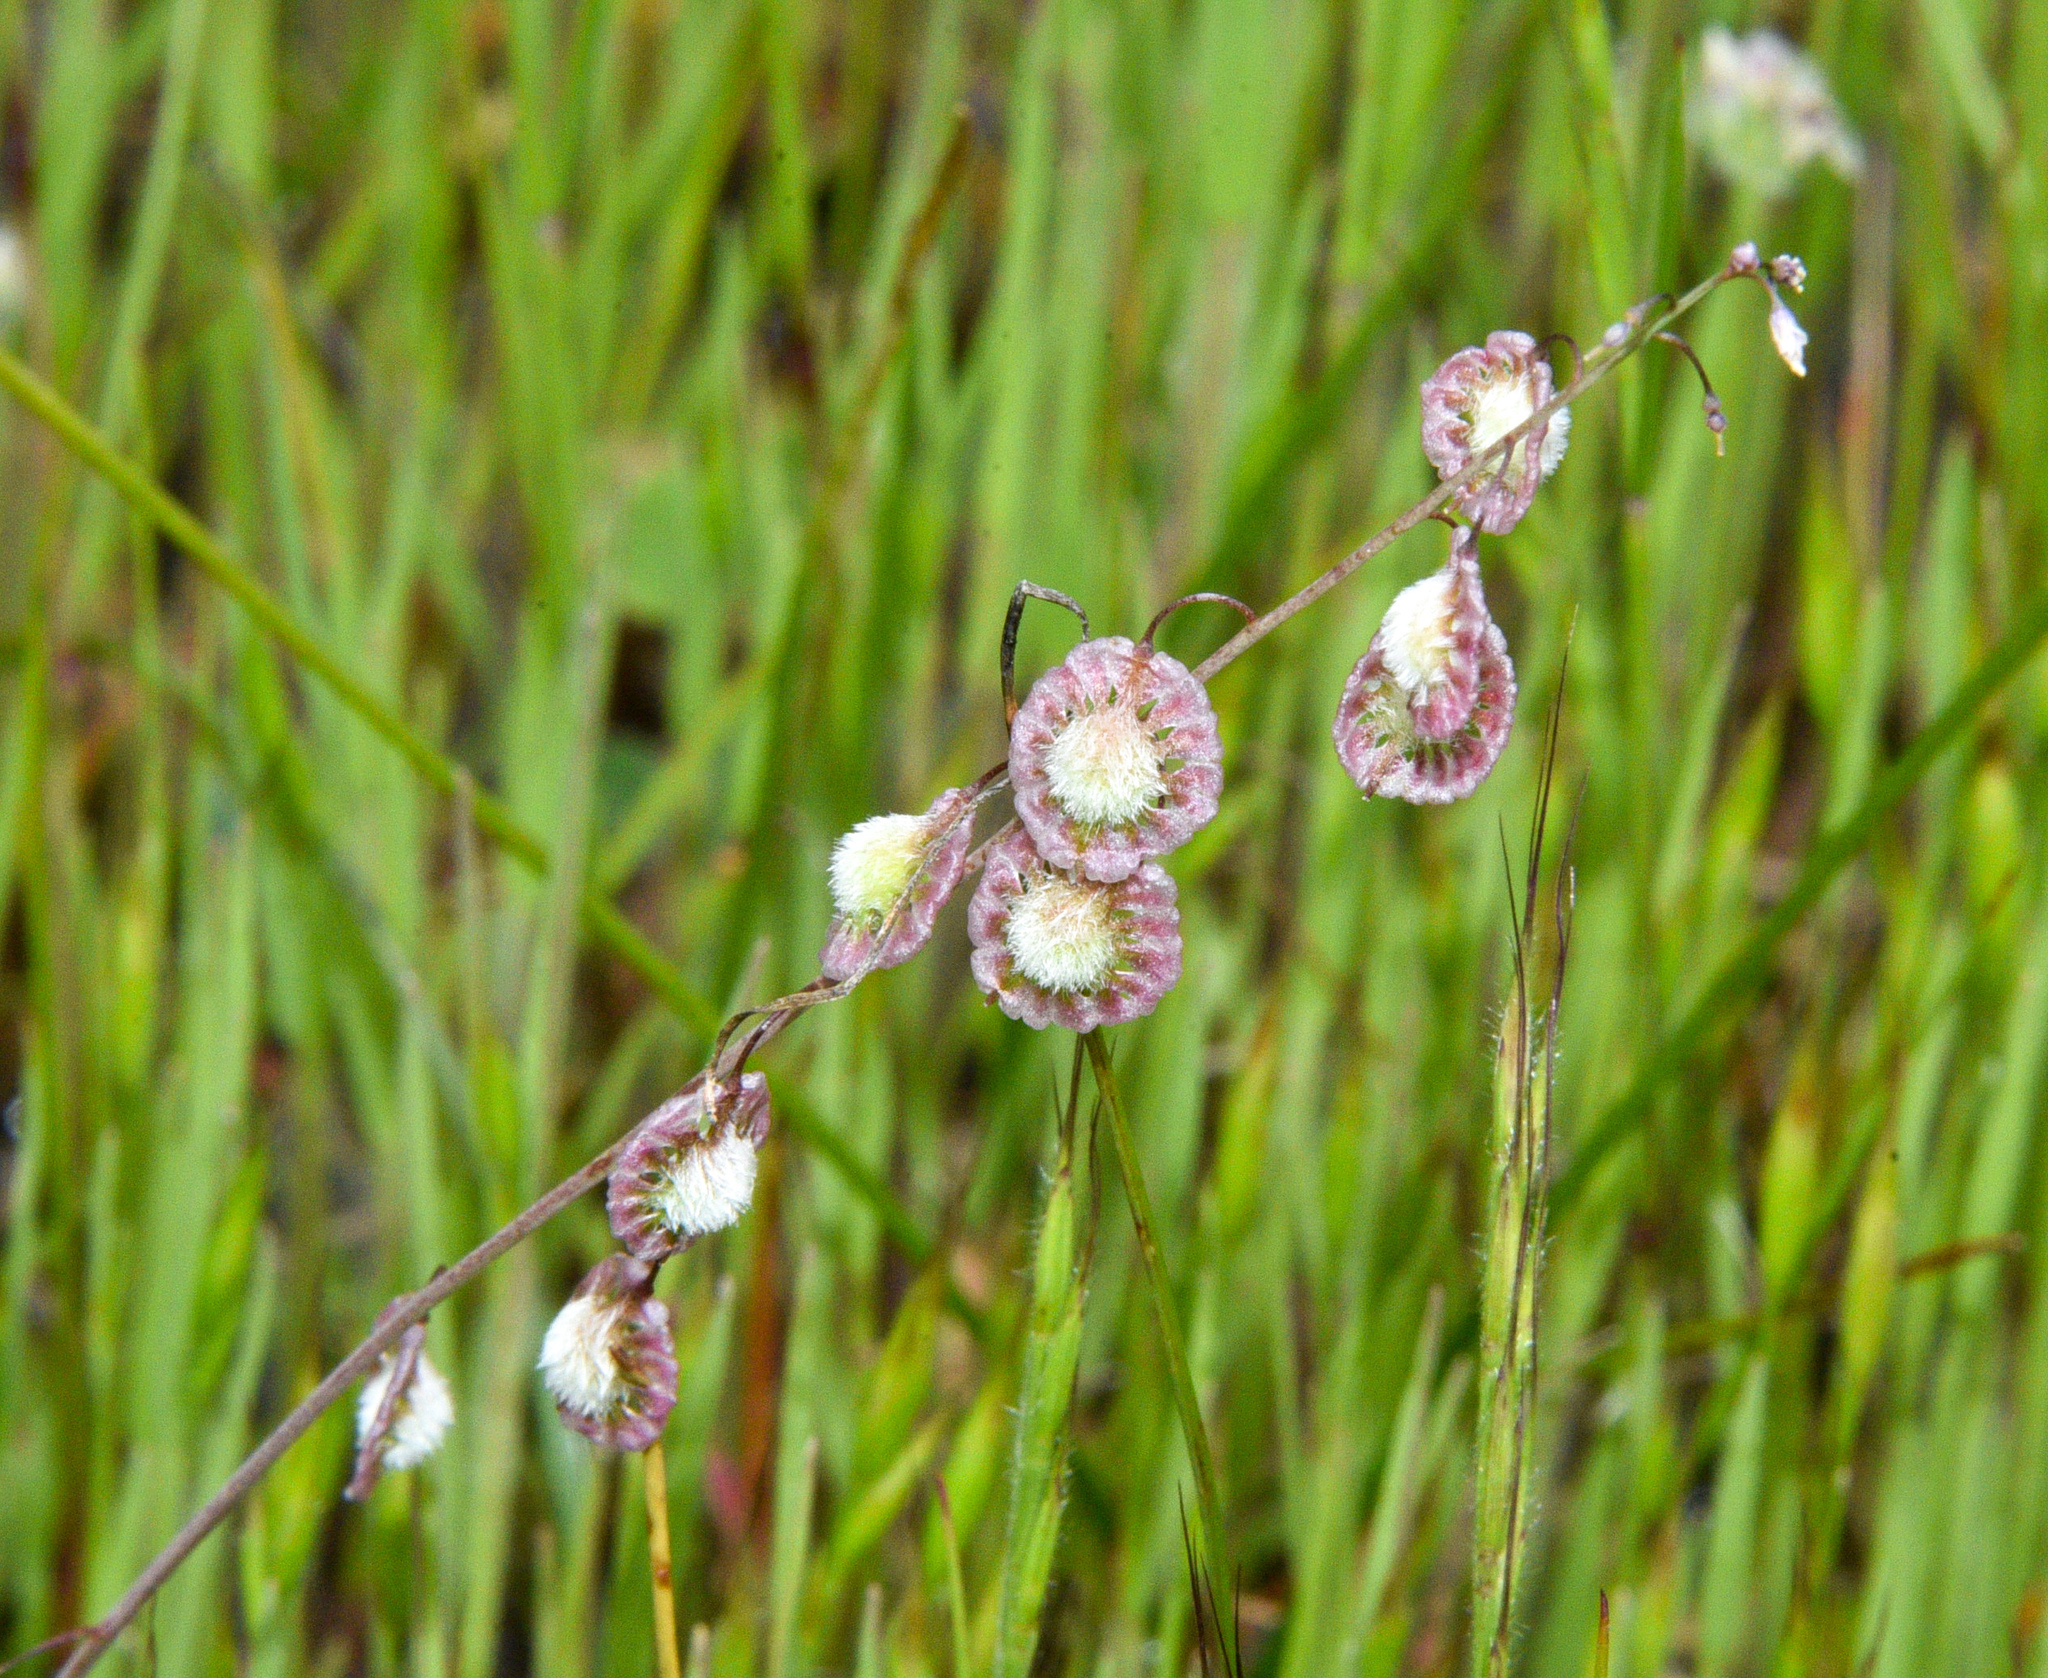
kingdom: Plantae
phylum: Tracheophyta
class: Magnoliopsida
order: Brassicales
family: Brassicaceae
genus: Thysanocarpus
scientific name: Thysanocarpus curvipes
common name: Sand fringepod
